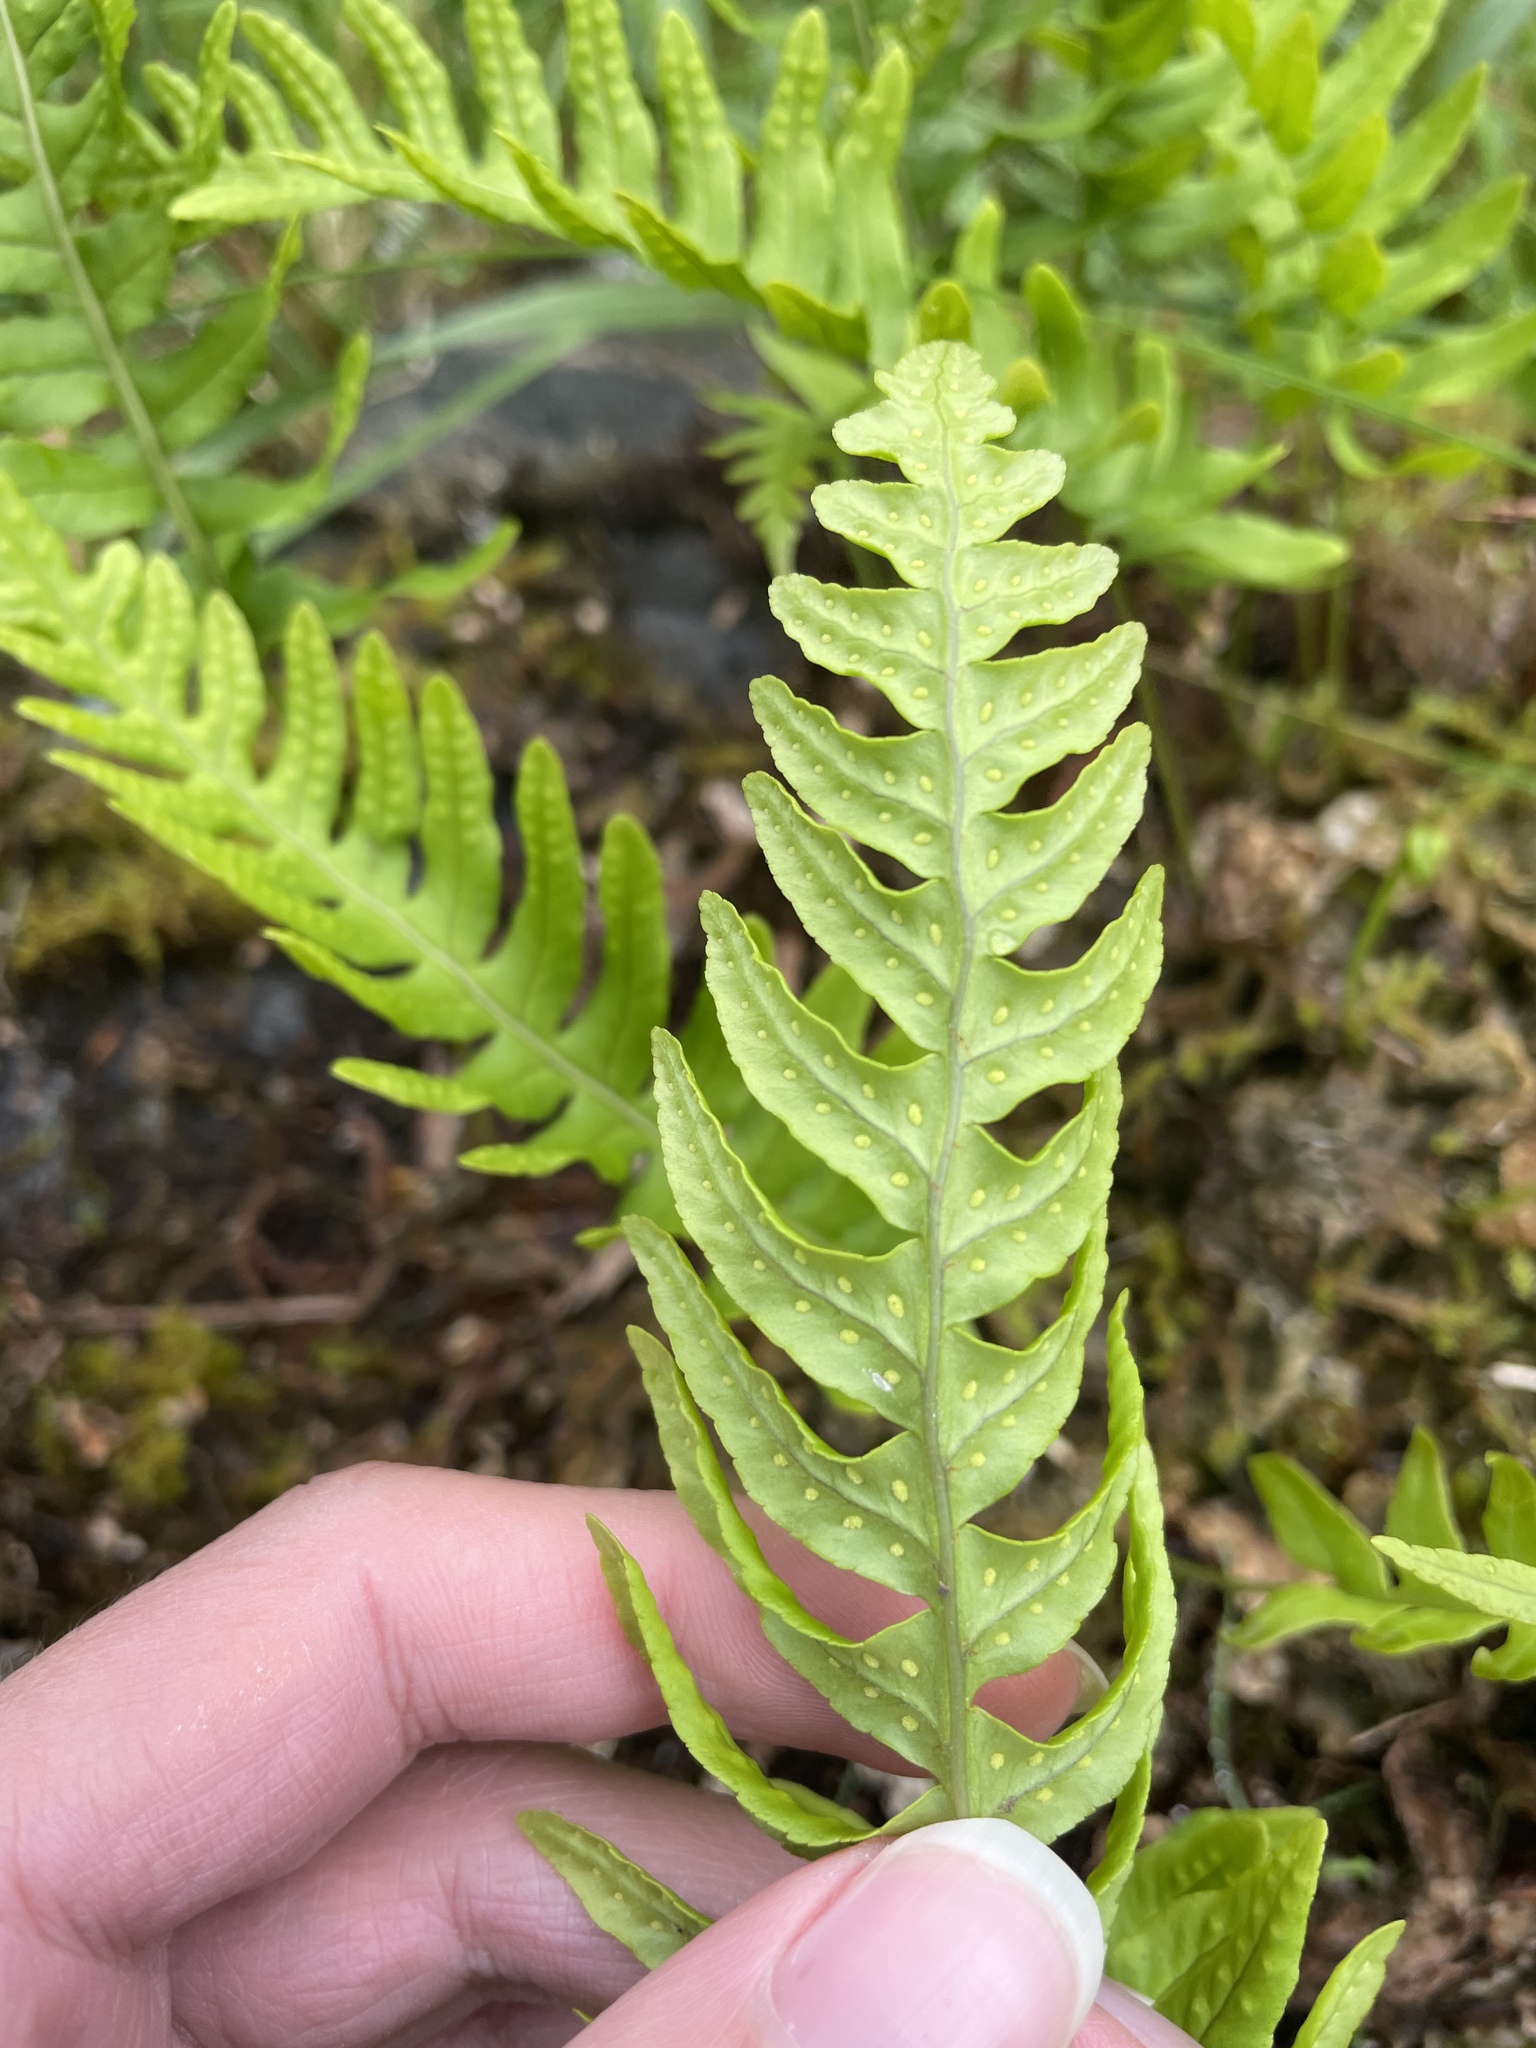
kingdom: Plantae
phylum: Tracheophyta
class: Polypodiopsida
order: Polypodiales
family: Polypodiaceae
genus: Polypodium
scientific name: Polypodium vulgare
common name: Common polypody
